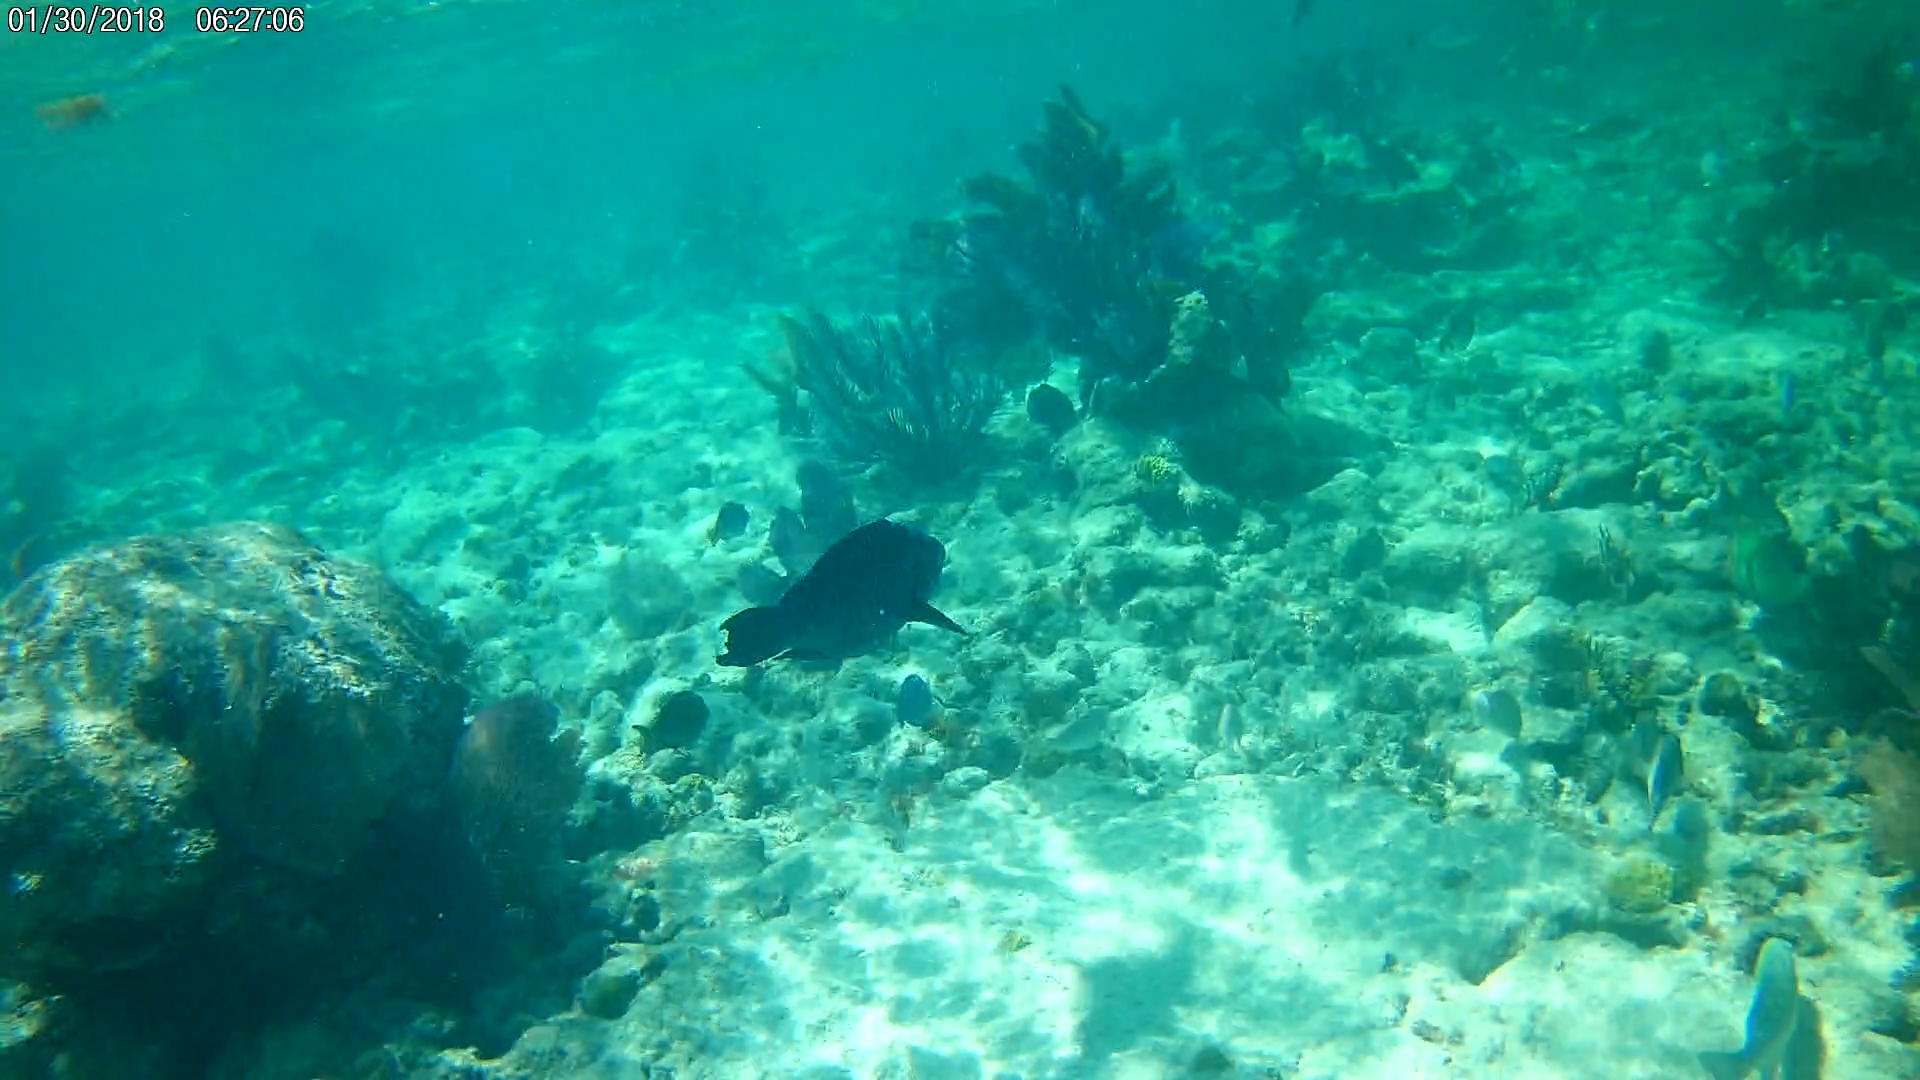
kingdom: Animalia
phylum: Chordata
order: Perciformes
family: Scaridae
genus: Scarus
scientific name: Scarus coelestinus
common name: Midnight parrotfish
